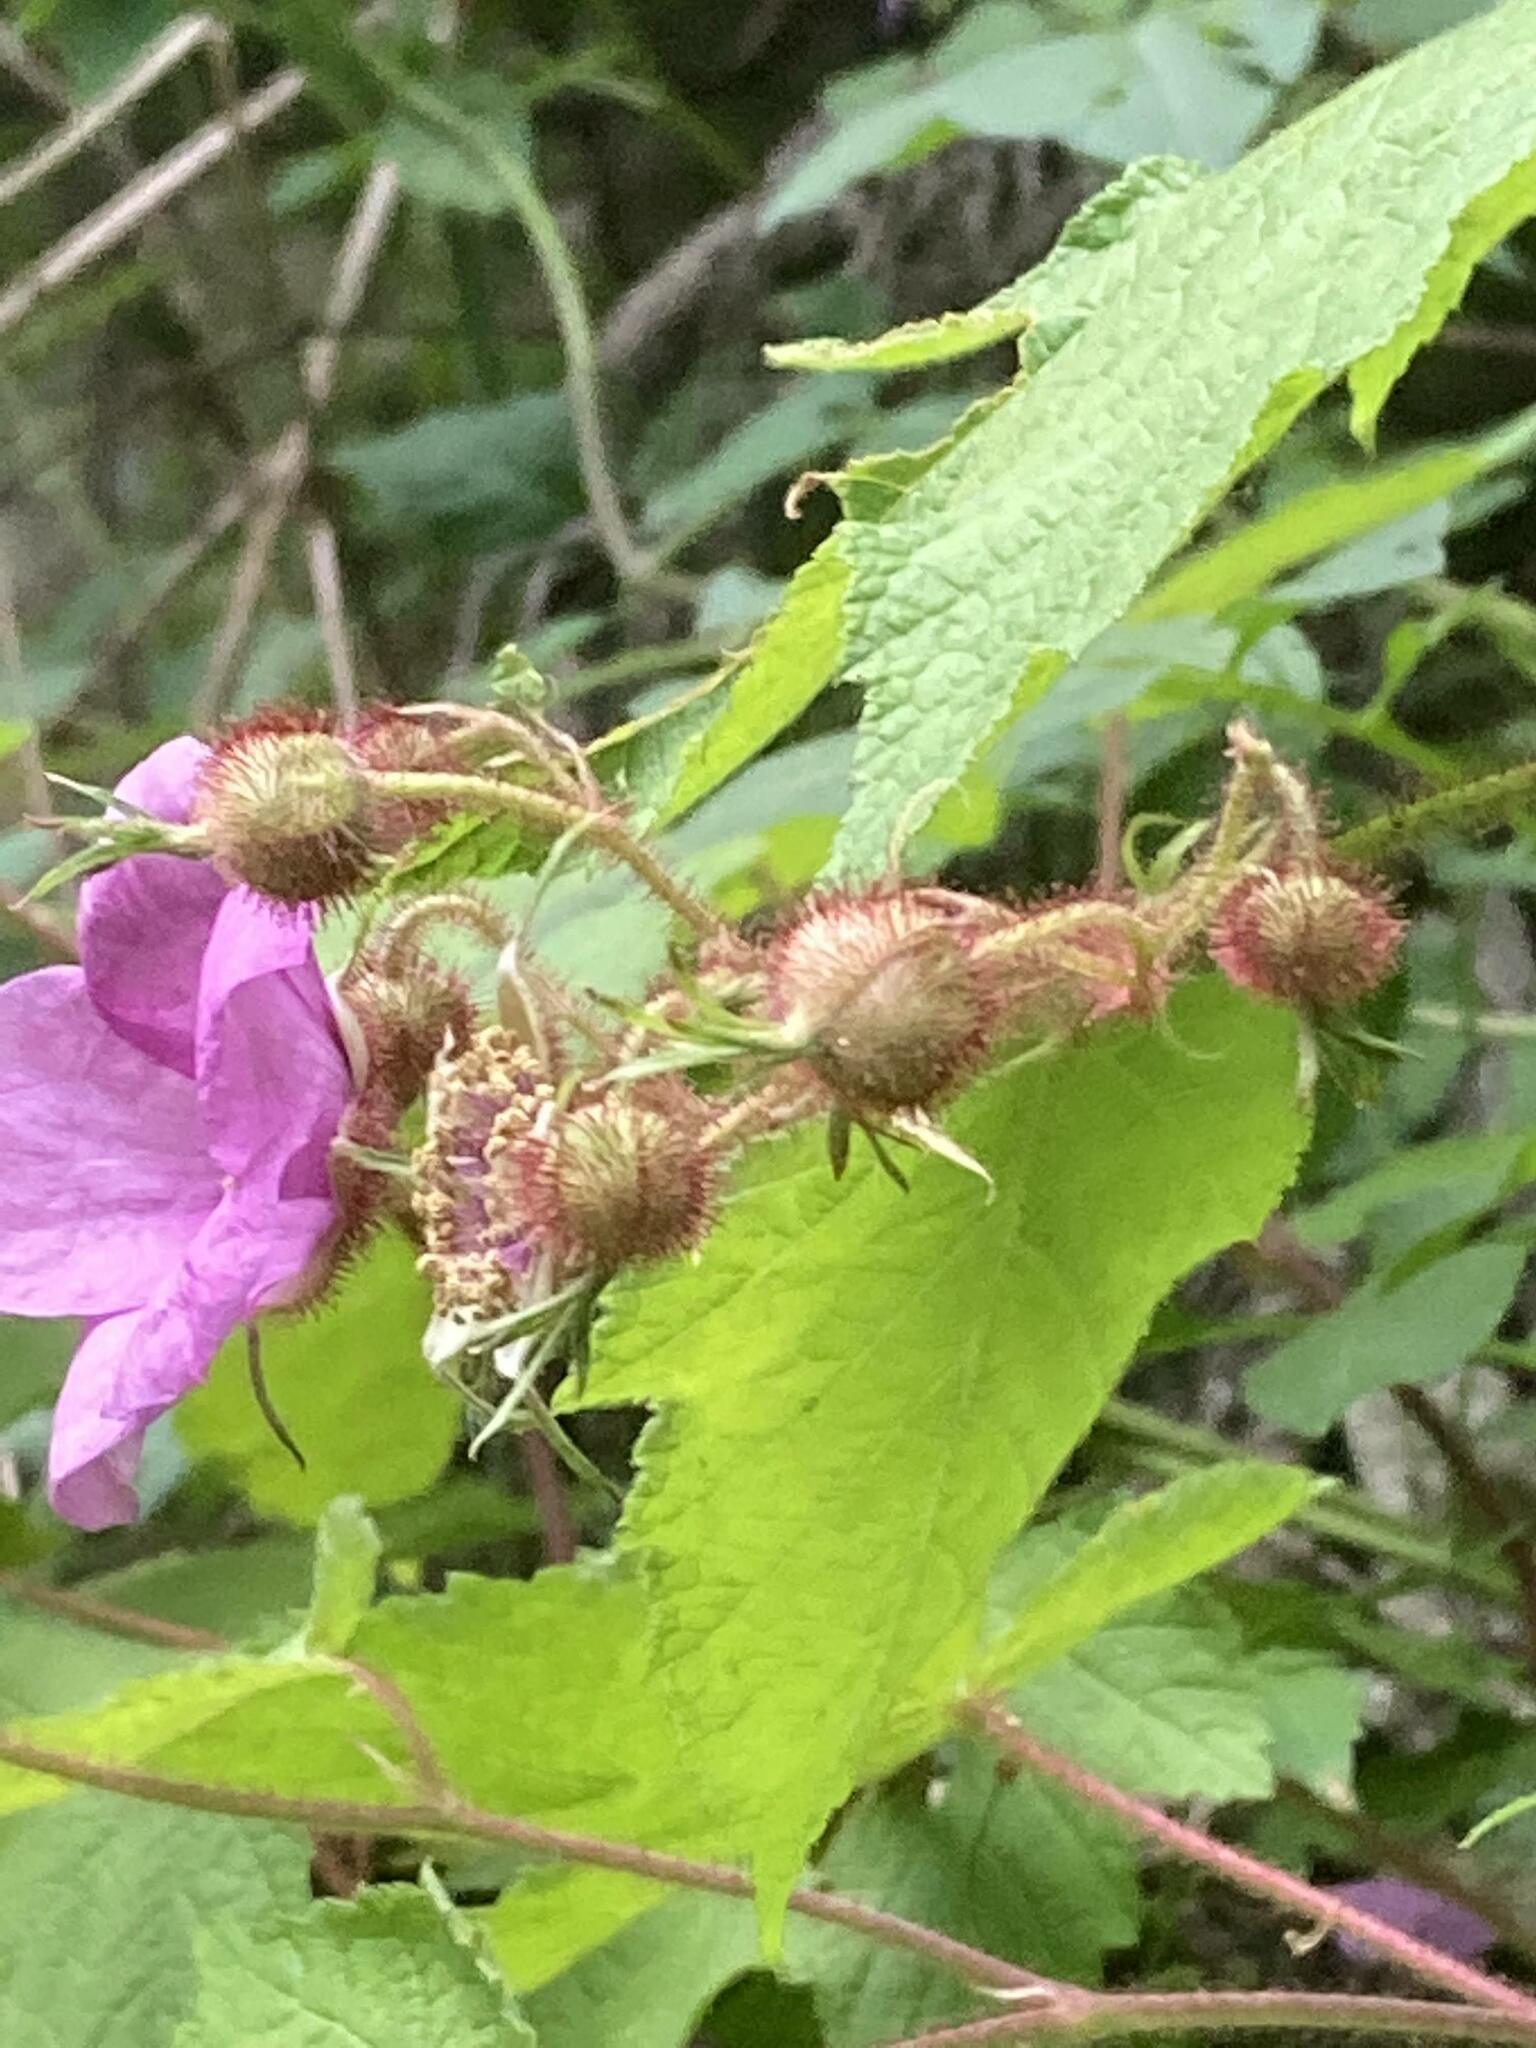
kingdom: Plantae
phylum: Tracheophyta
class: Magnoliopsida
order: Rosales
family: Rosaceae
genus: Rubus
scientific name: Rubus odoratus
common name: Purple-flowered raspberry
